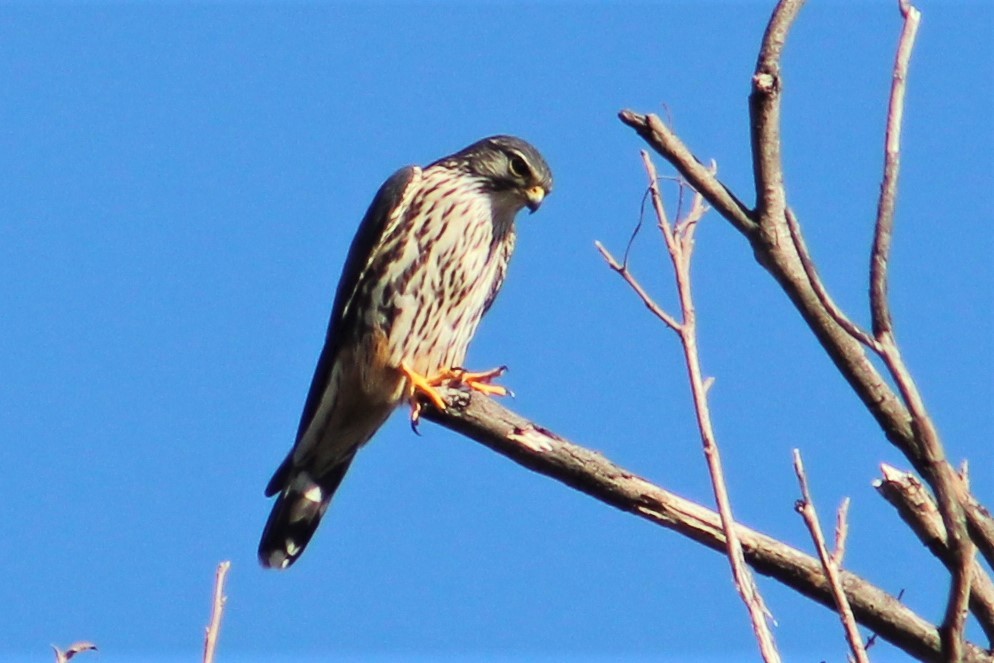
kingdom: Animalia
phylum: Chordata
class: Aves
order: Falconiformes
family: Falconidae
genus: Falco
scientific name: Falco columbarius
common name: Merlin
